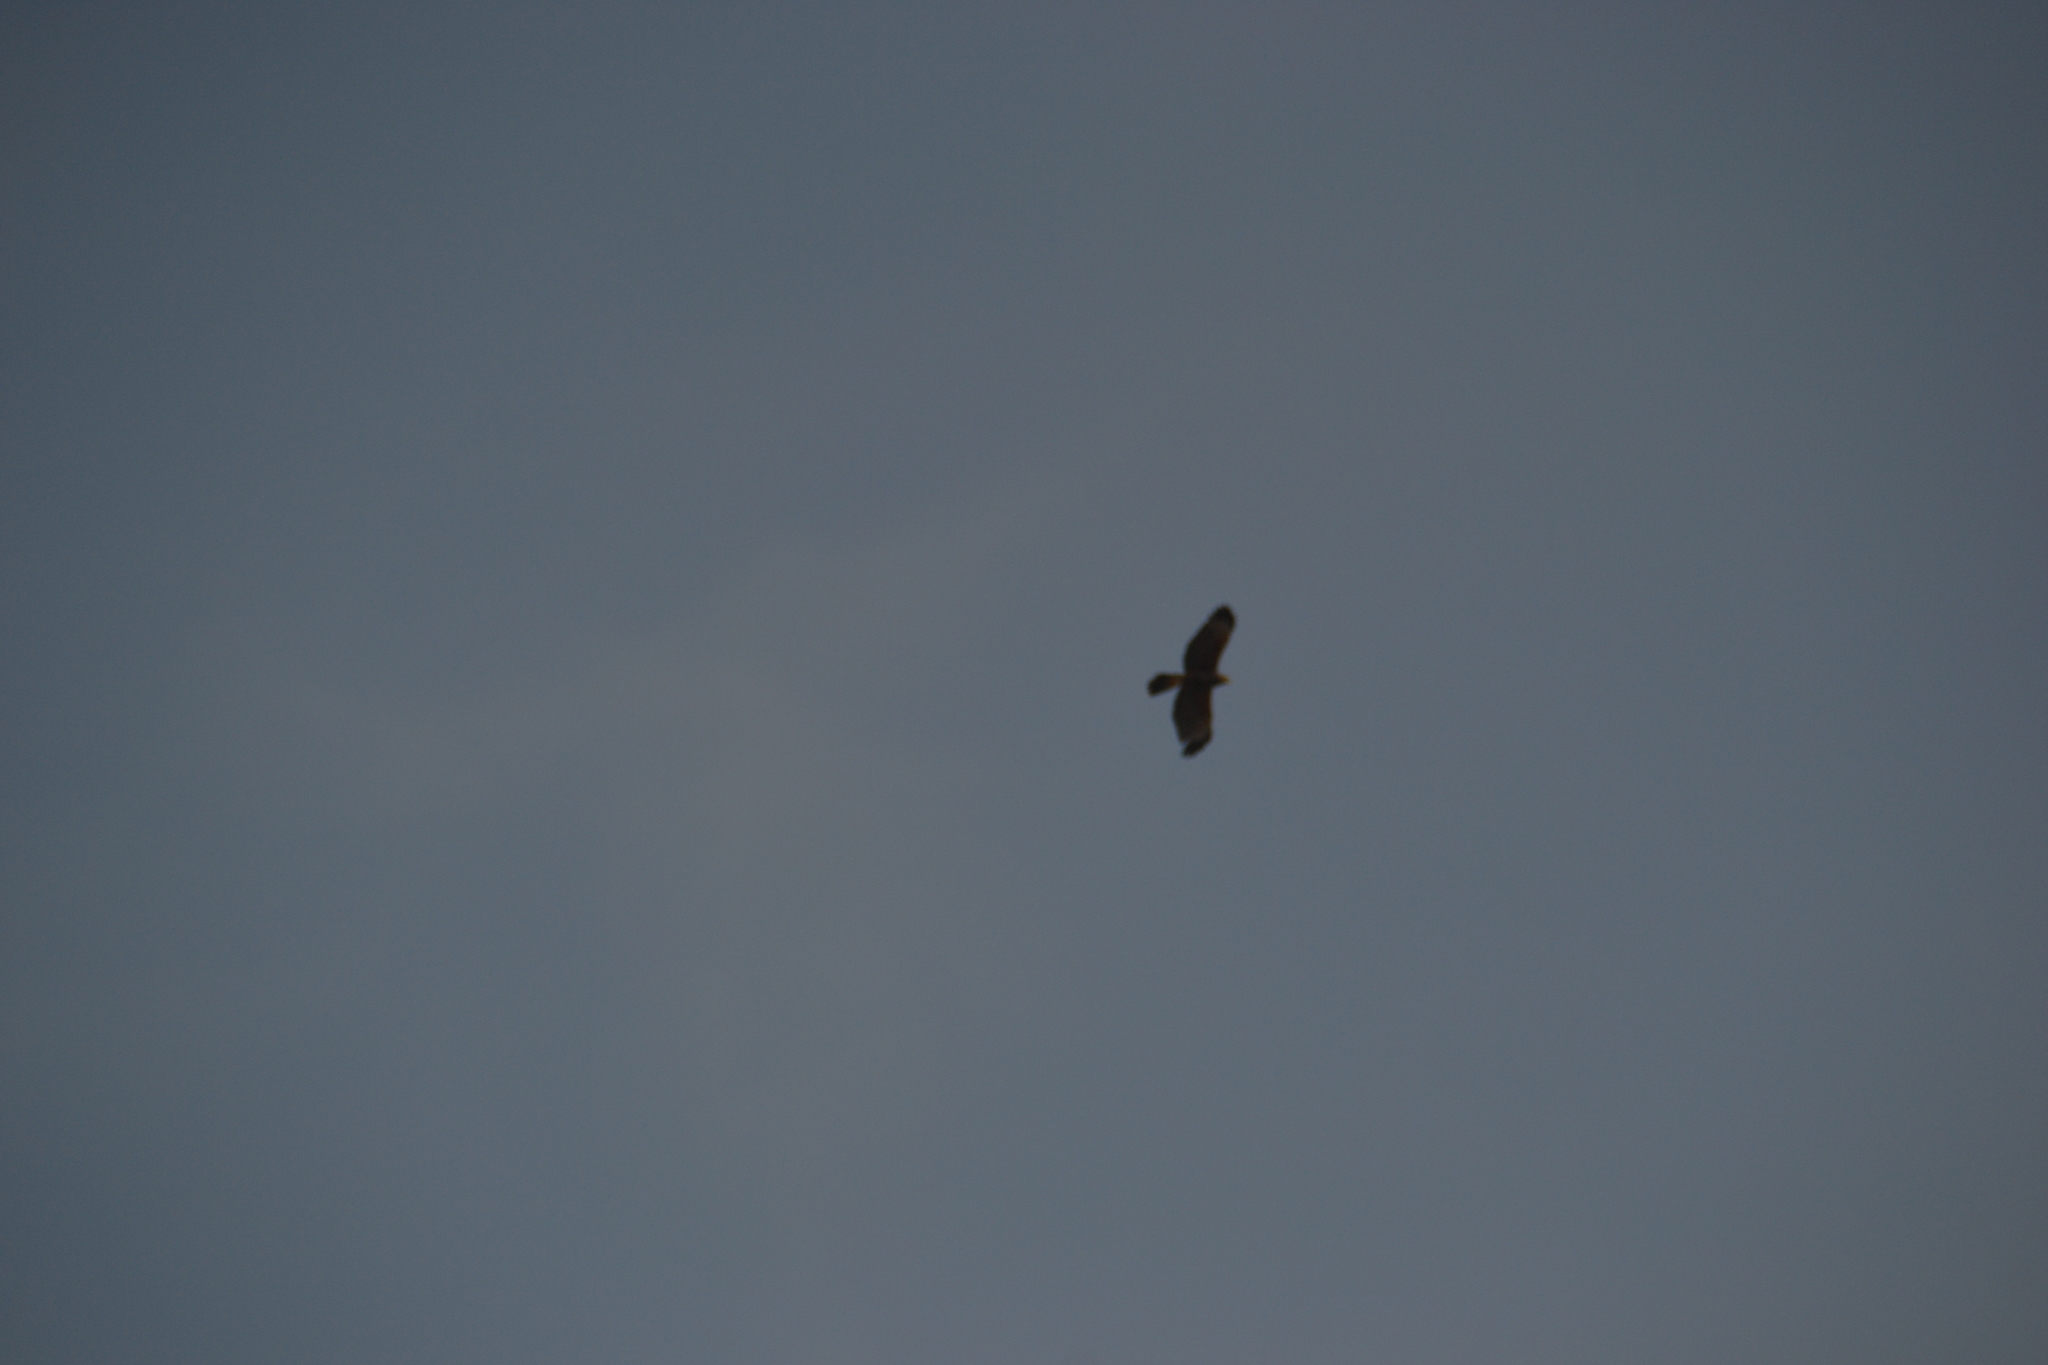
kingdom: Animalia
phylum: Chordata
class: Aves
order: Accipitriformes
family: Accipitridae
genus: Parabuteo
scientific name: Parabuteo unicinctus
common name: Harris's hawk
